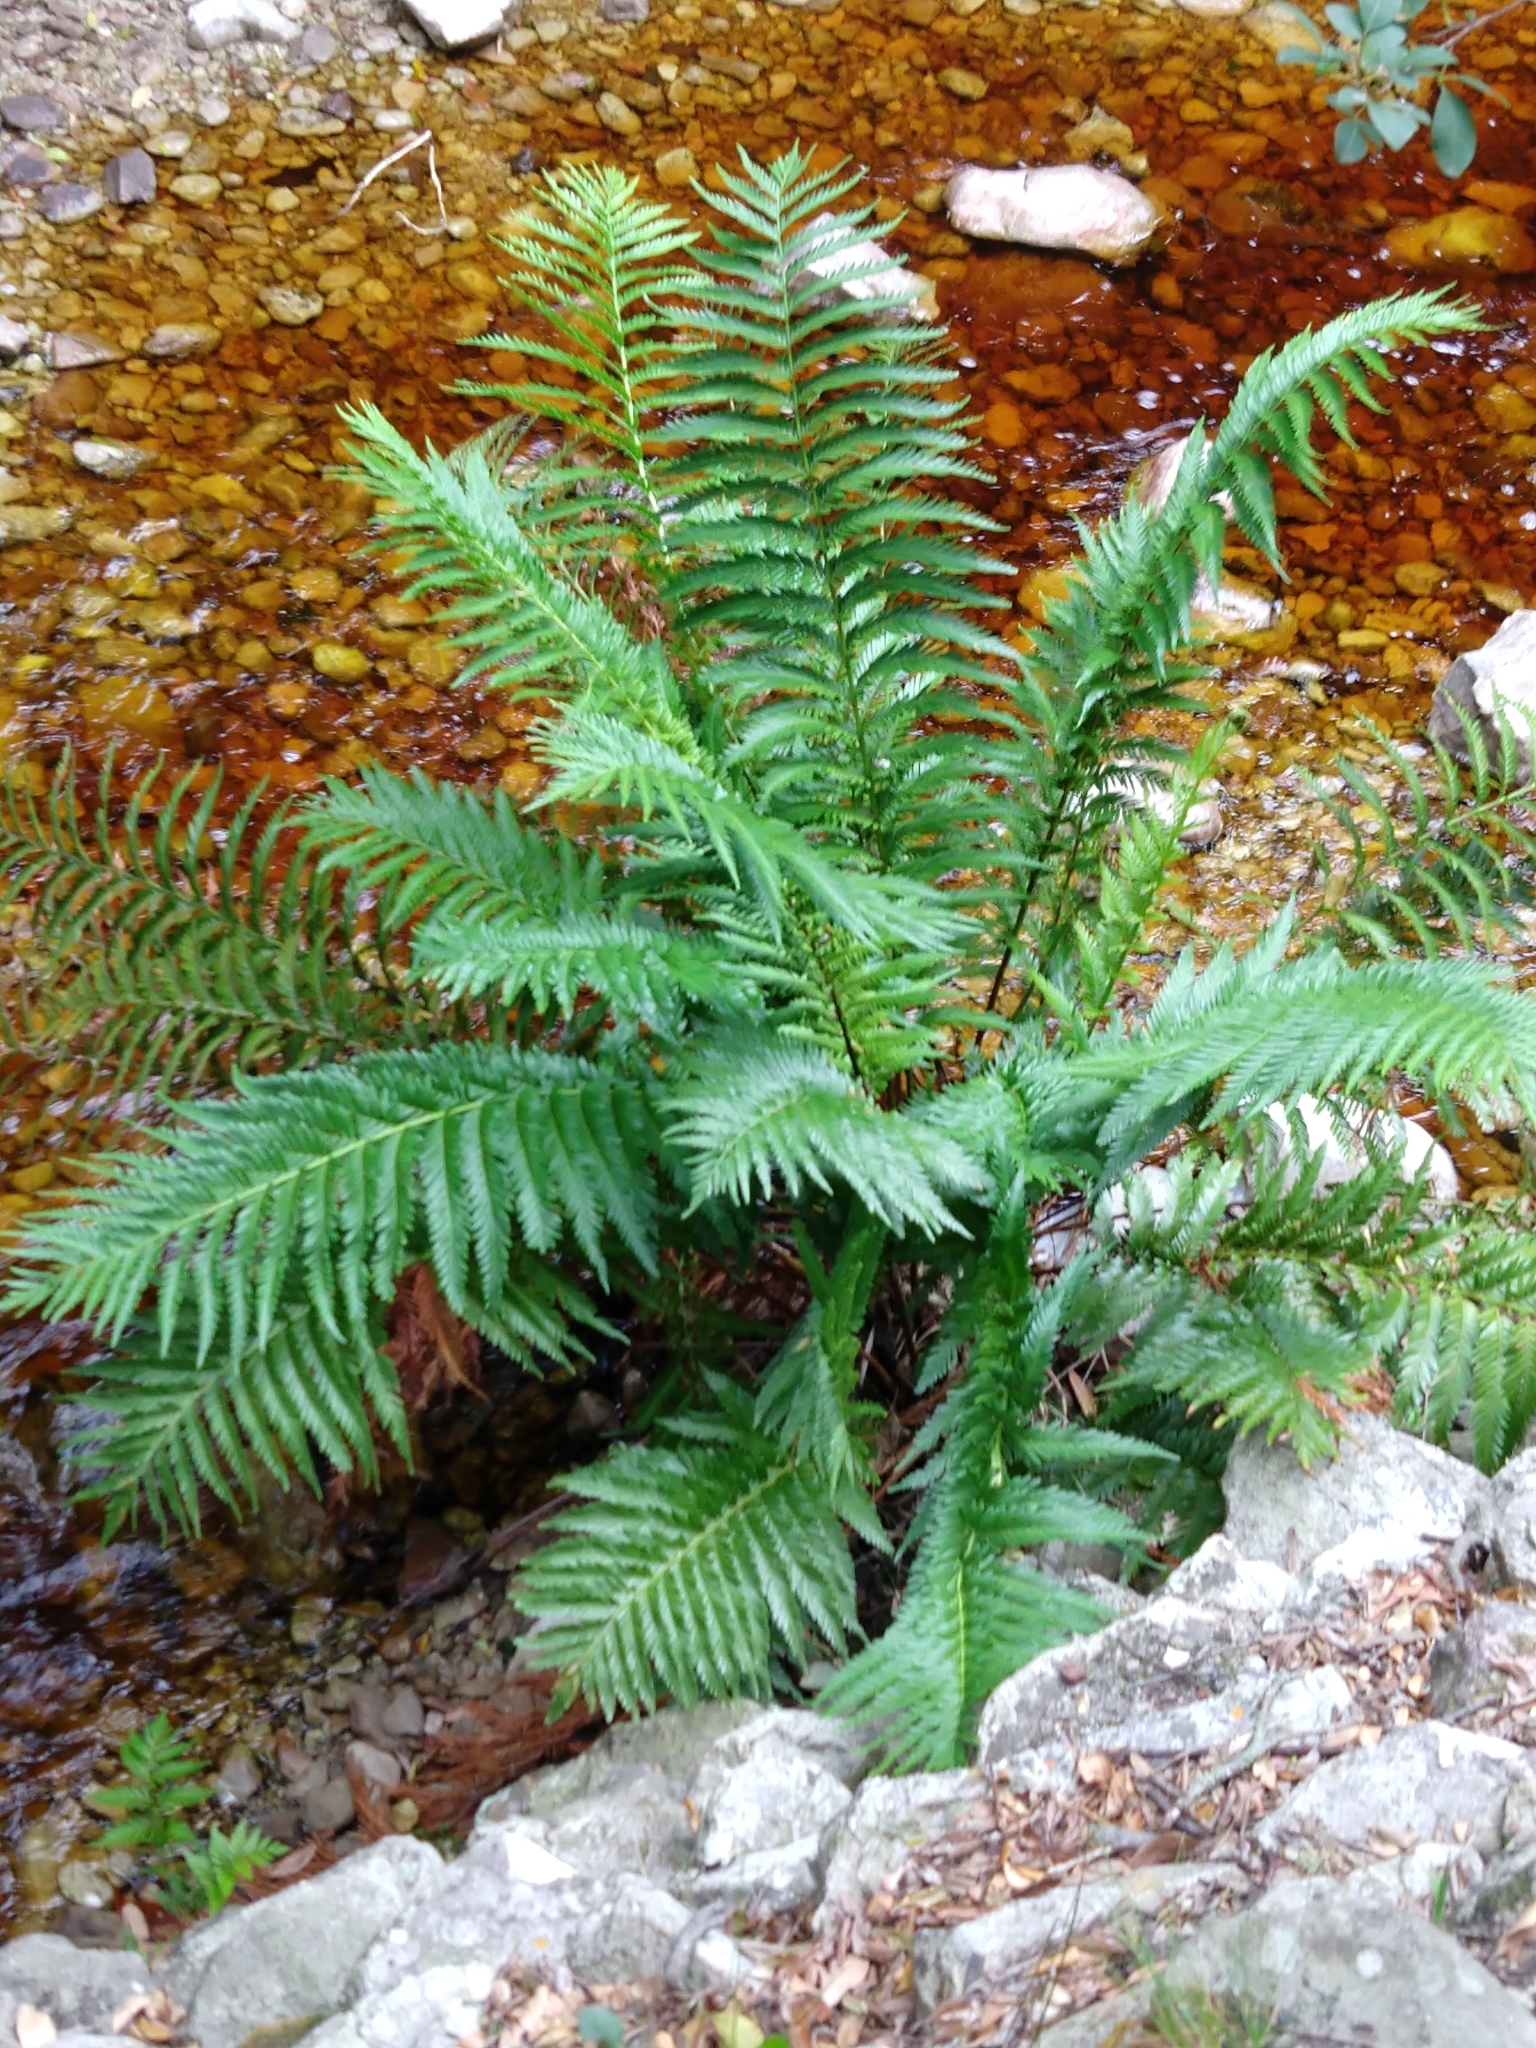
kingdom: Plantae
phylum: Tracheophyta
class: Polypodiopsida
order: Osmundales
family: Osmundaceae
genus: Todea
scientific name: Todea barbara
